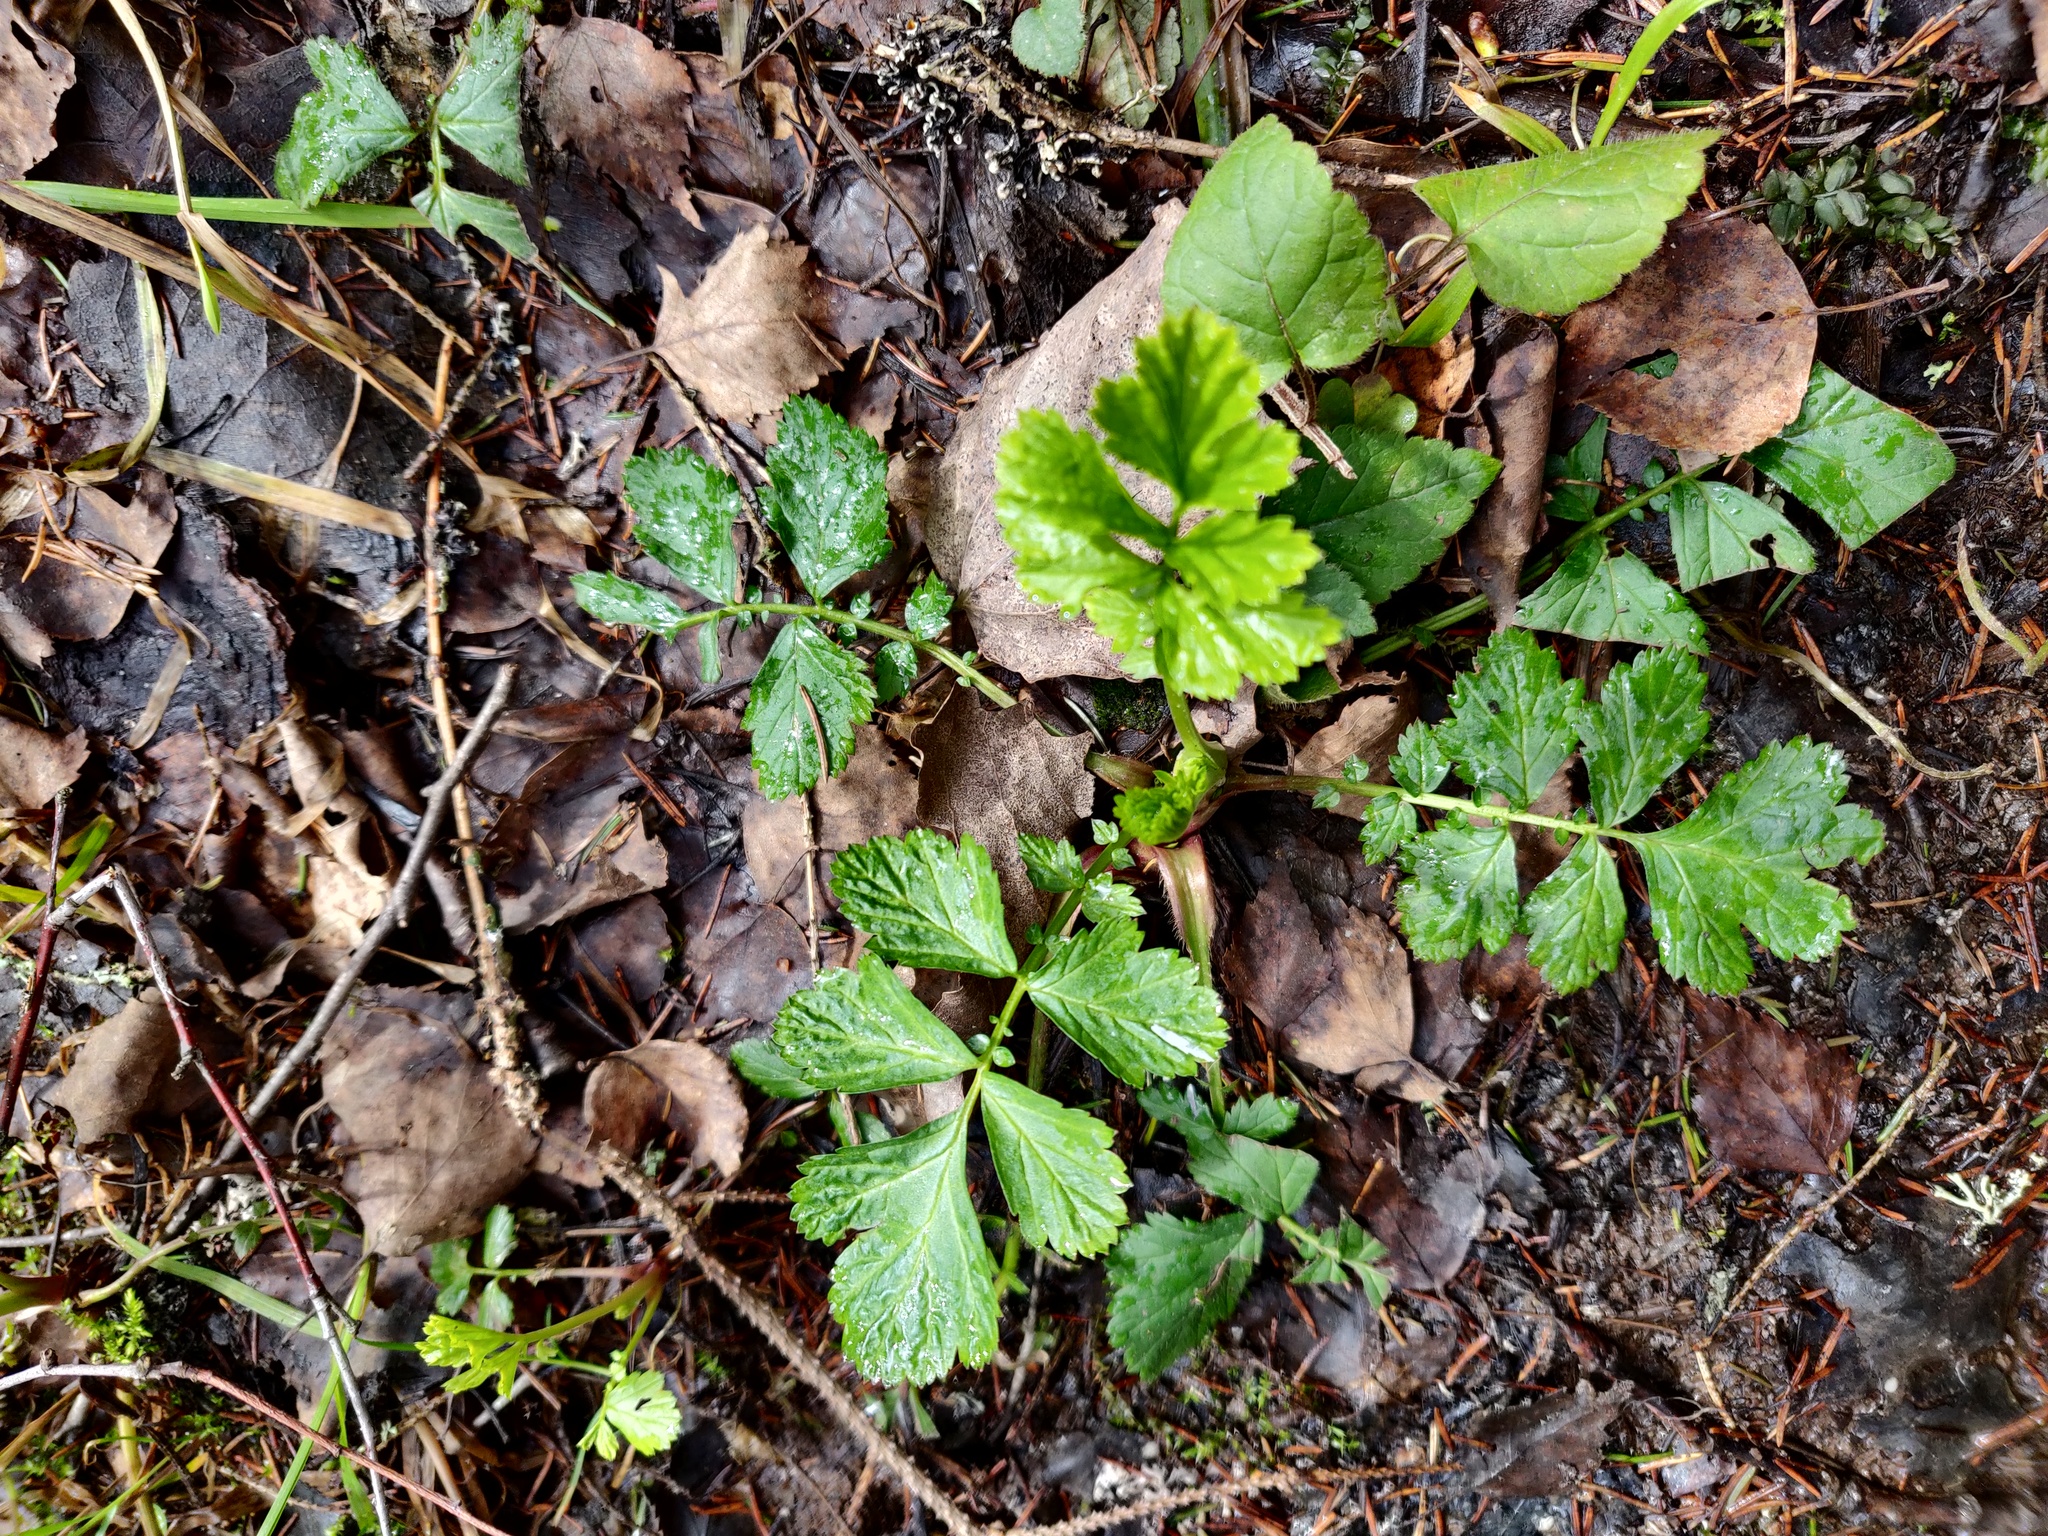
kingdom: Plantae
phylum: Tracheophyta
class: Magnoliopsida
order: Rosales
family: Rosaceae
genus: Geum
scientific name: Geum rivale
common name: Water avens
